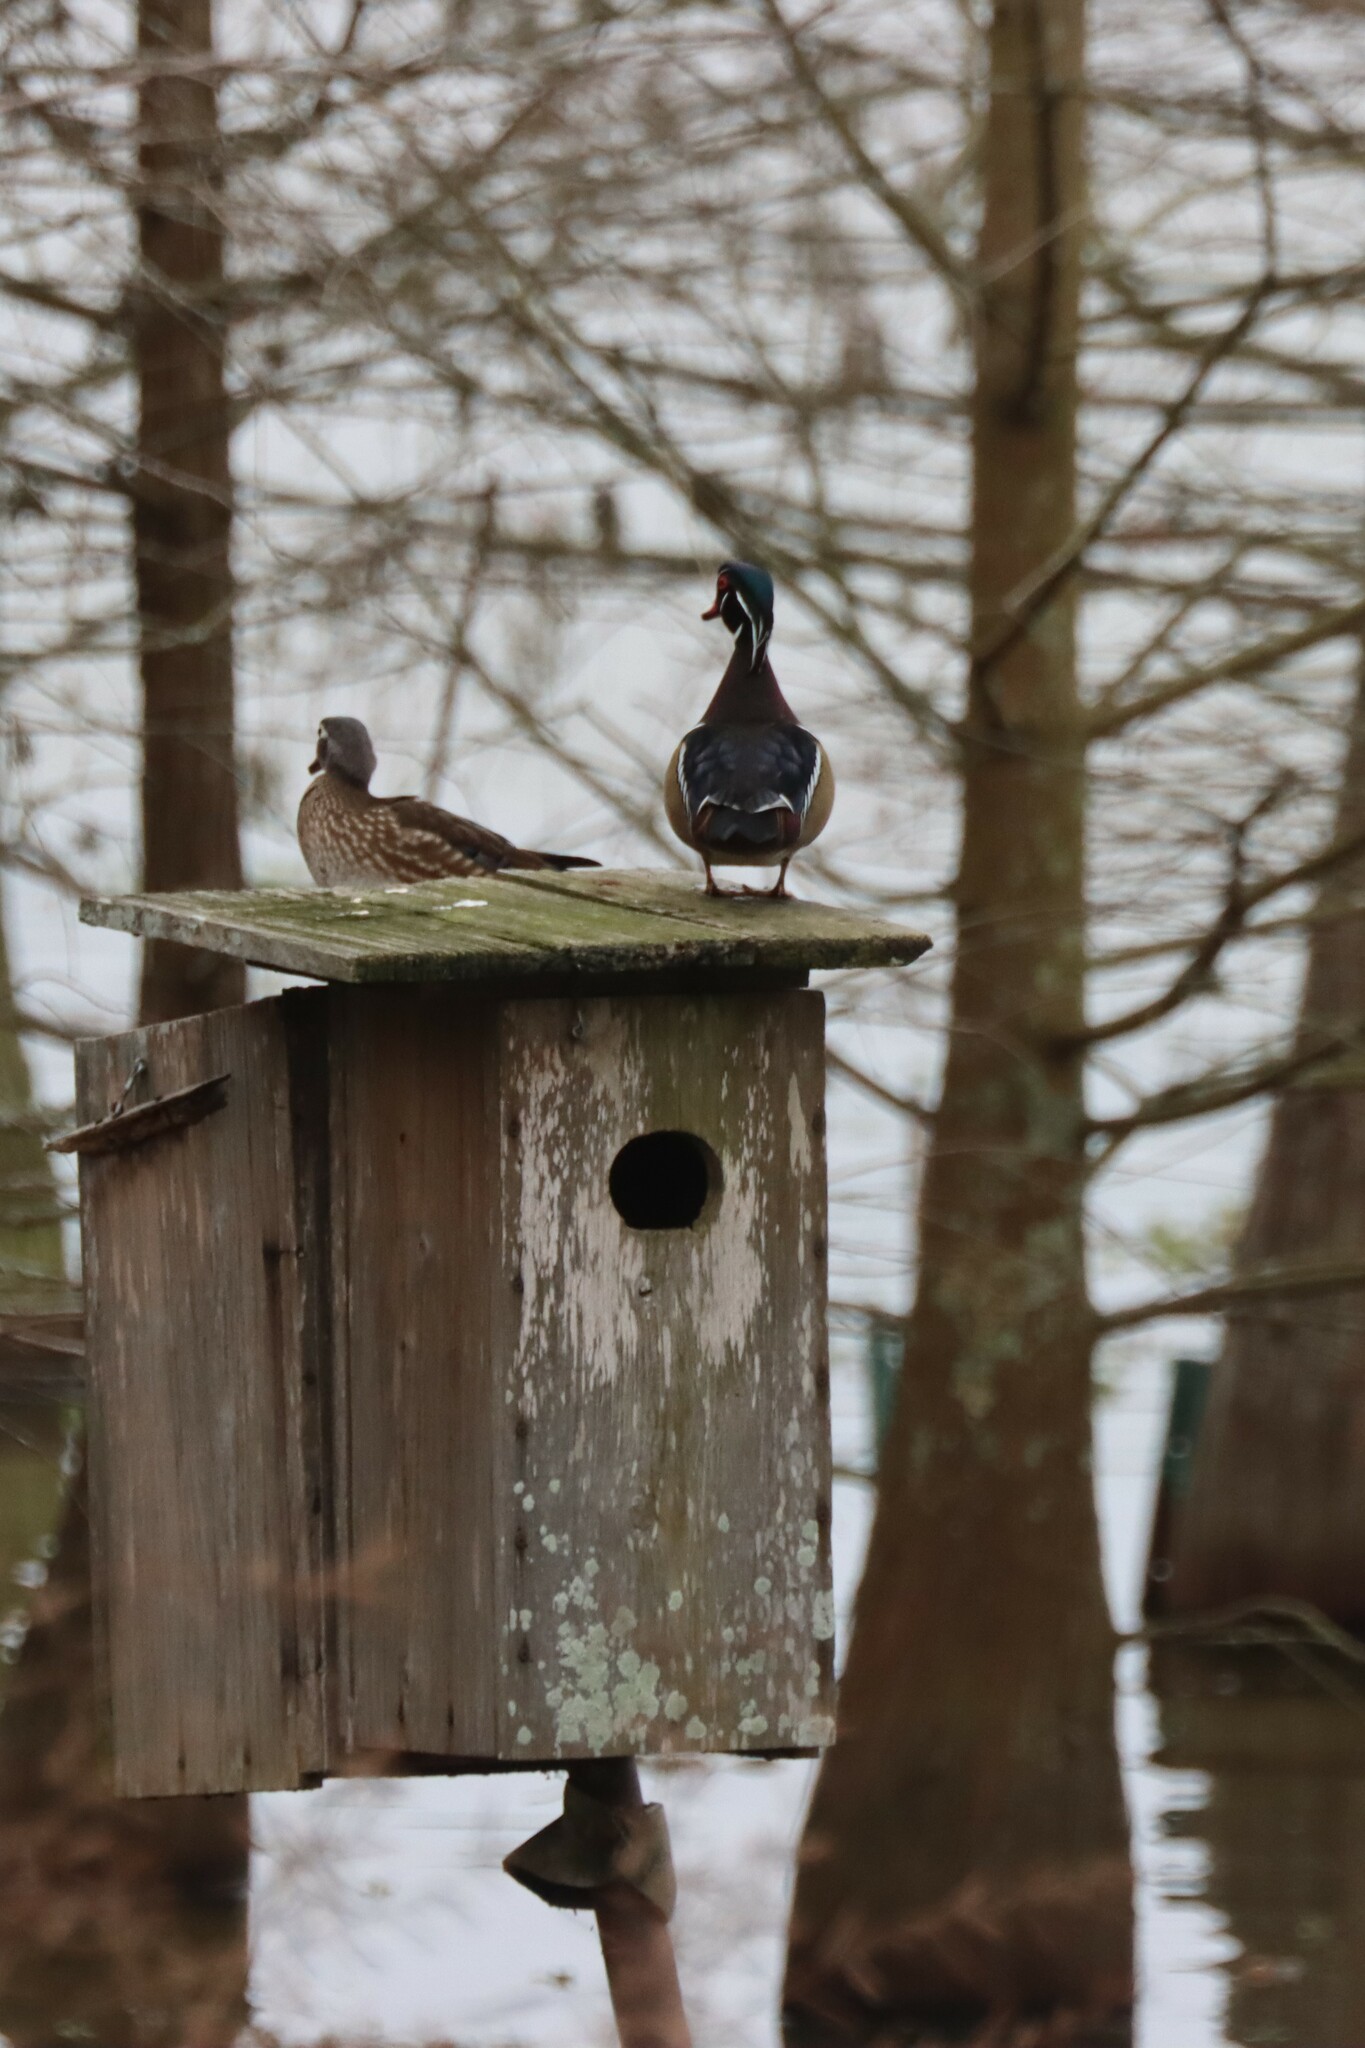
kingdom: Animalia
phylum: Chordata
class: Aves
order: Anseriformes
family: Anatidae
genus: Aix
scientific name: Aix sponsa
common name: Wood duck
